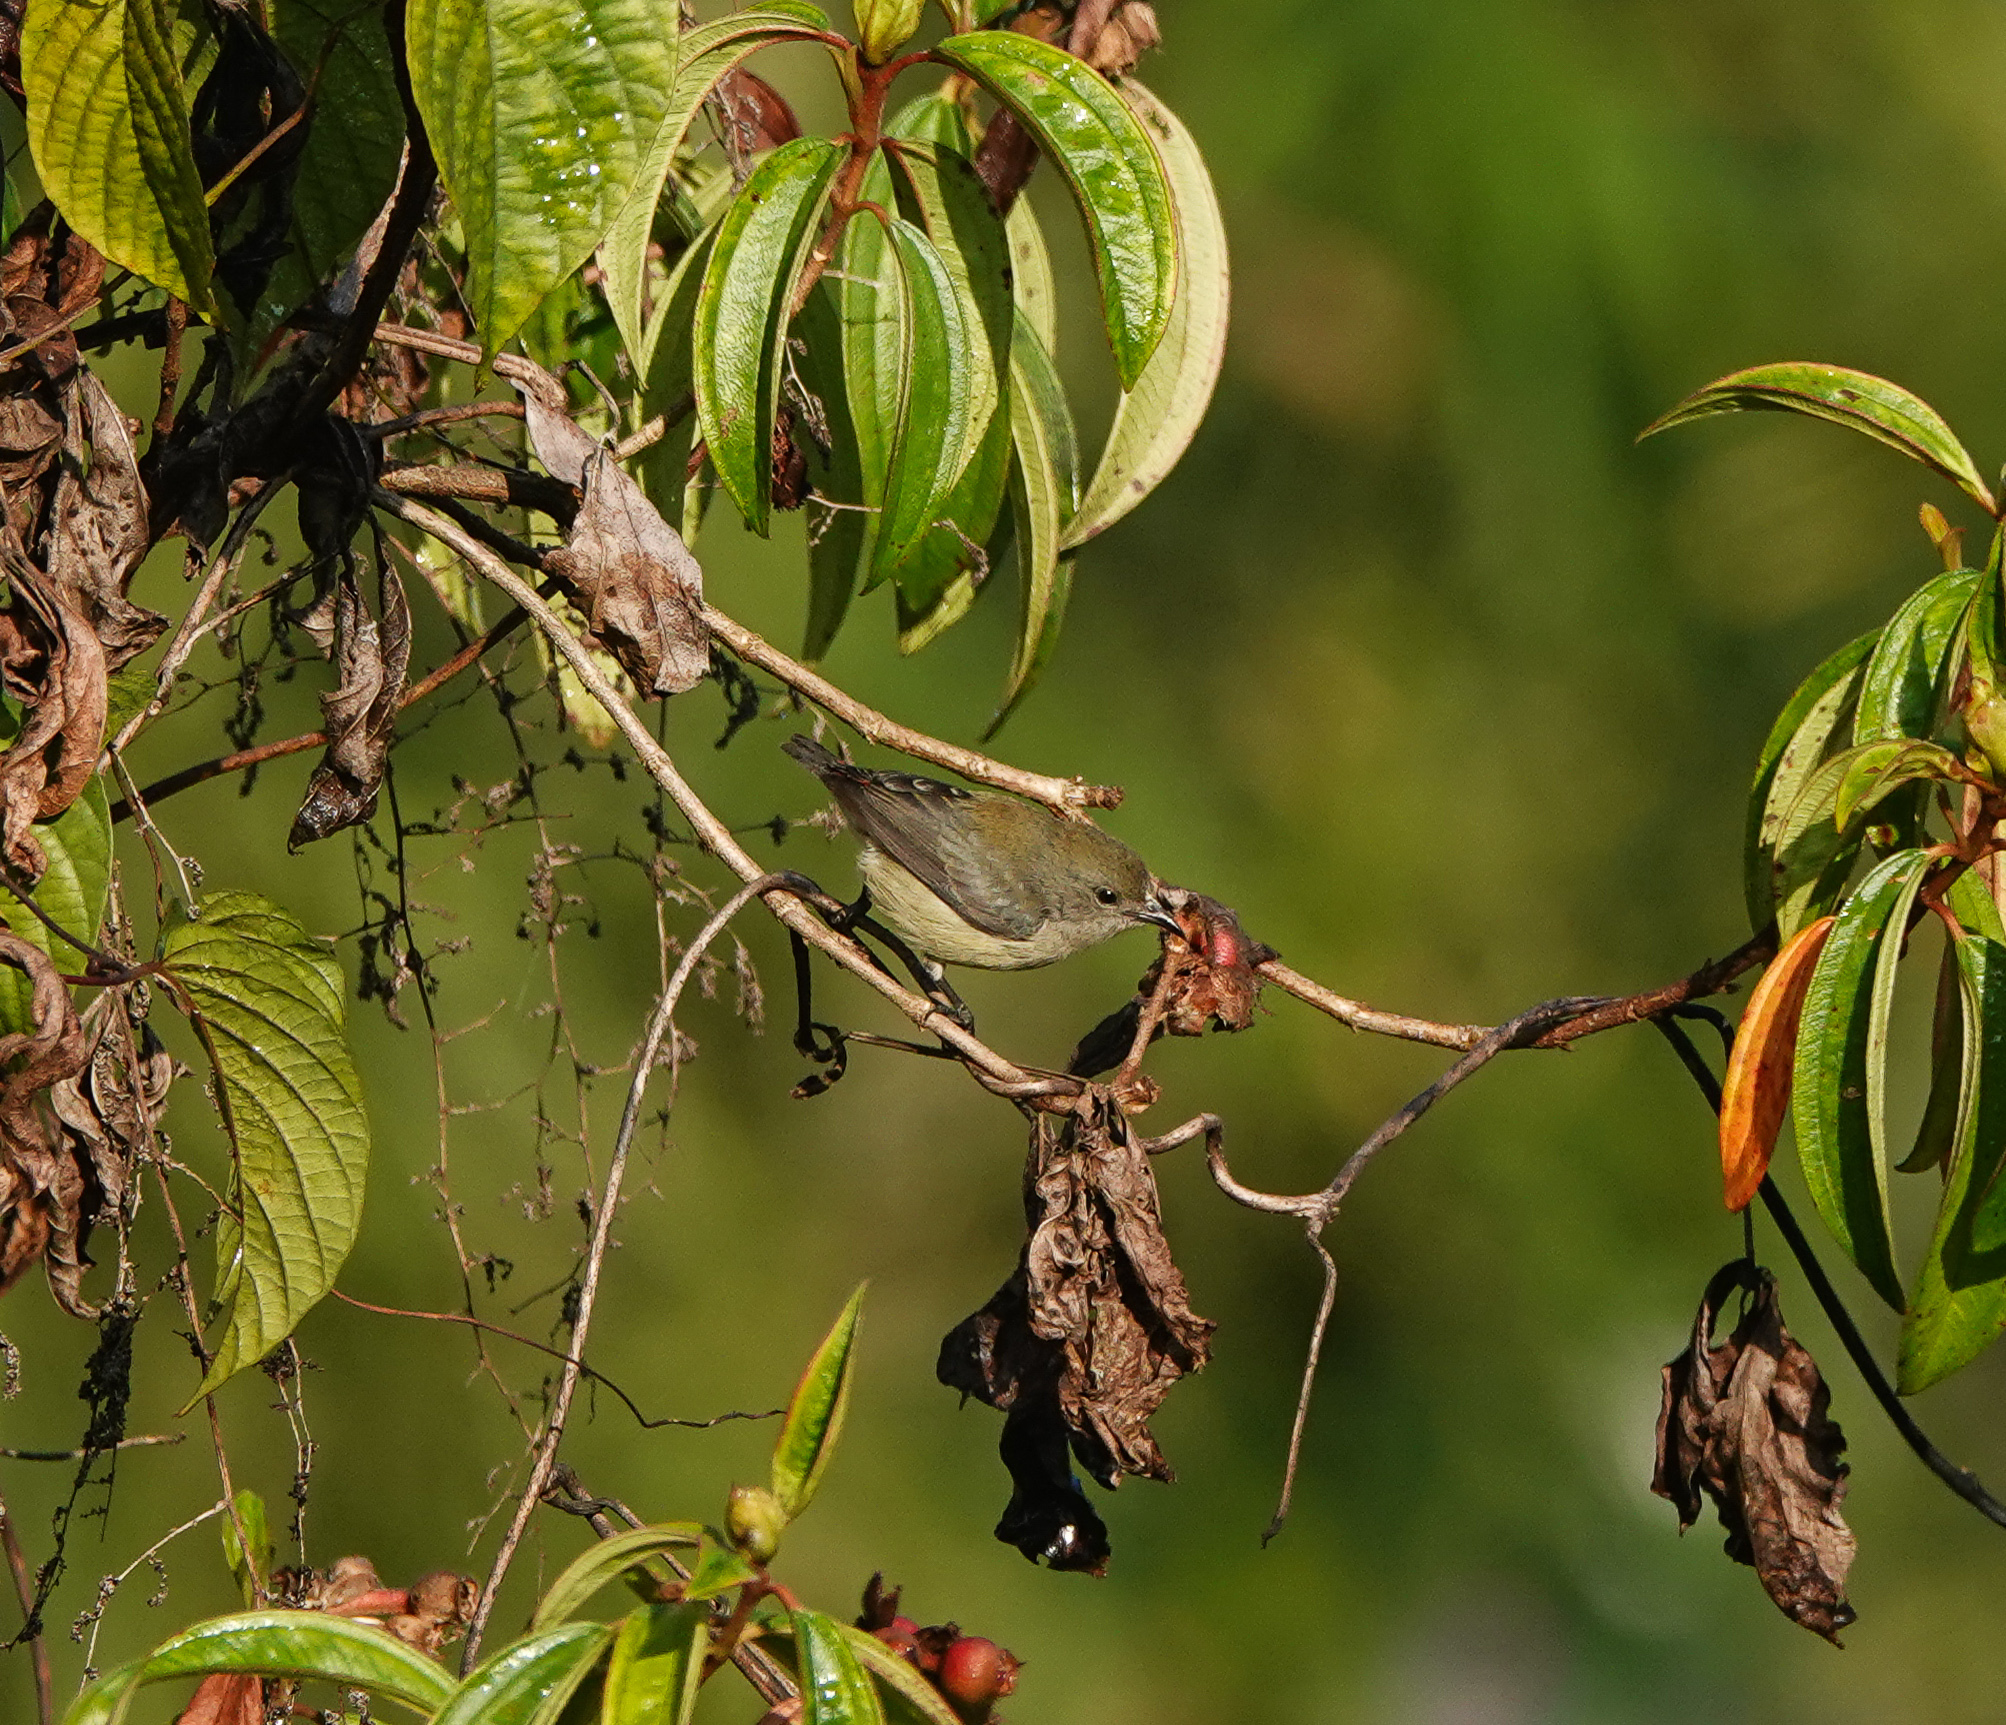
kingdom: Animalia
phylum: Chordata
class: Aves
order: Passeriformes
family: Dicaeidae
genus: Dicaeum
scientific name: Dicaeum cruentatum
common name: Scarlet-backed flowerpecker
